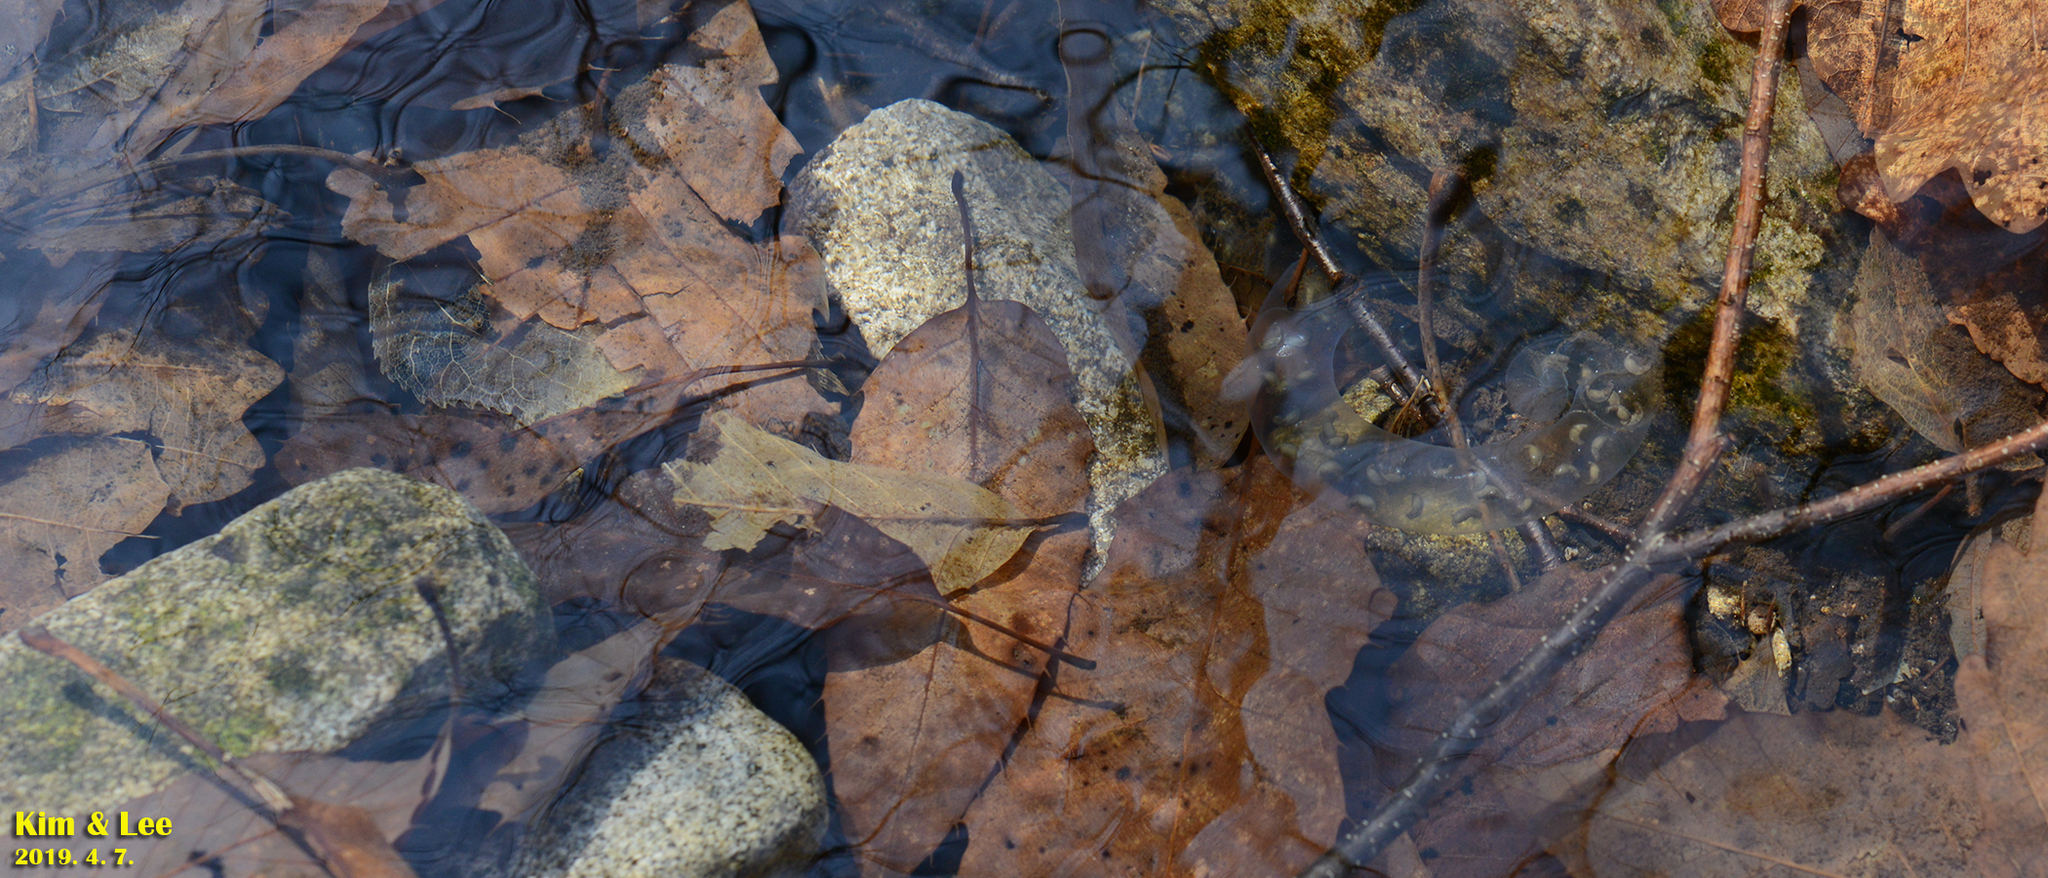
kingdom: Animalia
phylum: Chordata
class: Amphibia
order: Caudata
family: Hynobiidae
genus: Hynobius
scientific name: Hynobius leechii
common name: Gensan salamander
